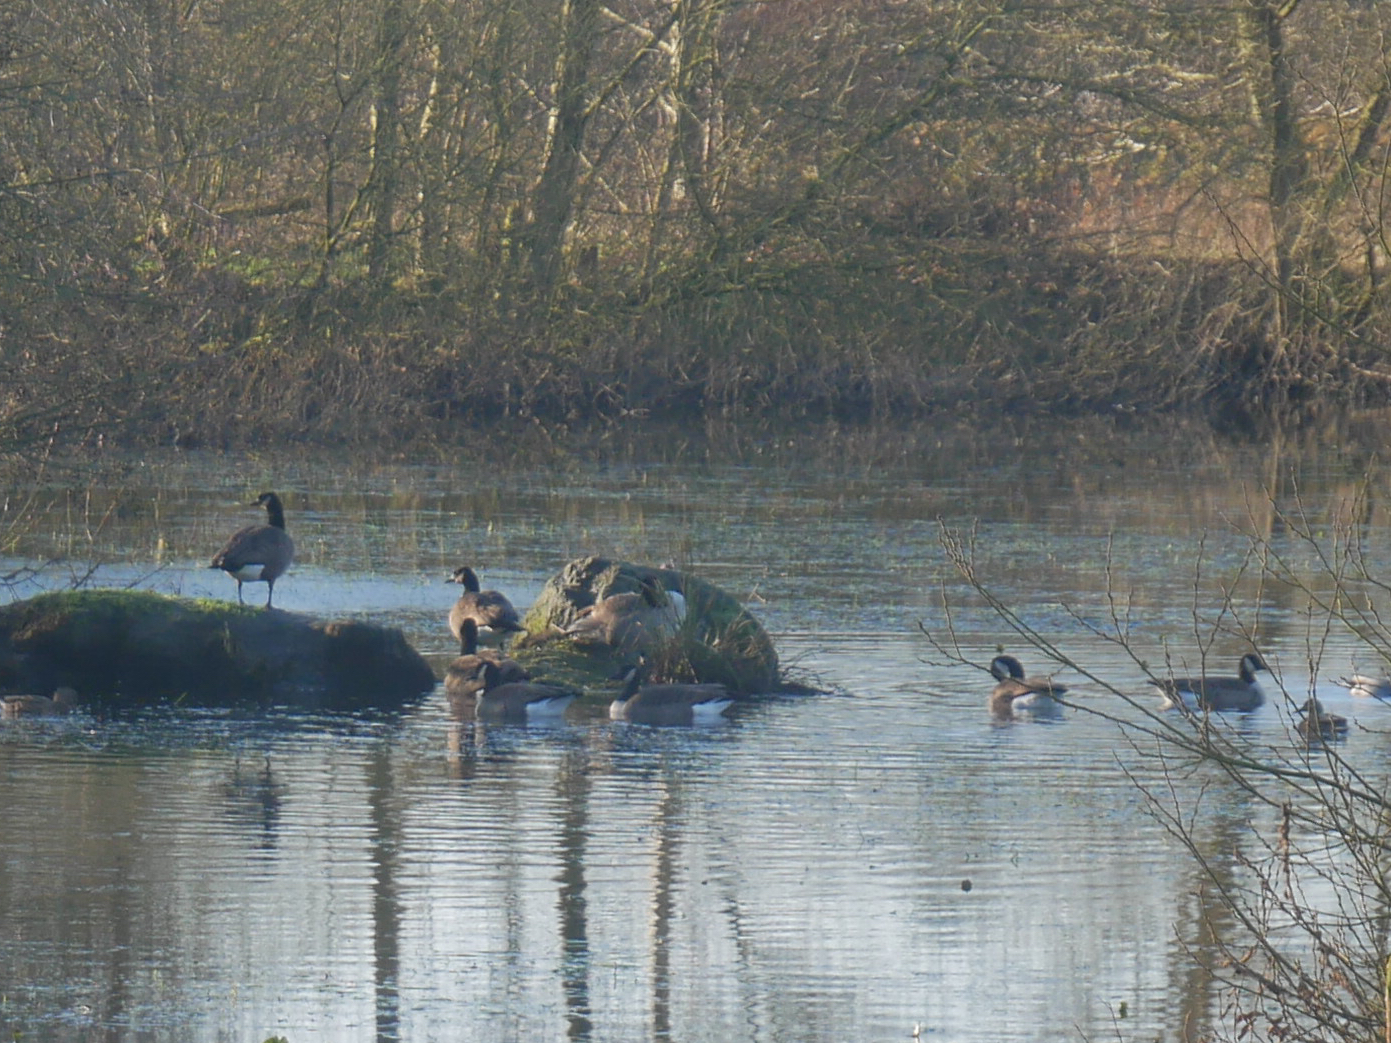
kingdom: Animalia
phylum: Chordata
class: Aves
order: Anseriformes
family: Anatidae
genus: Branta
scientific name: Branta canadensis
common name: Canada goose
